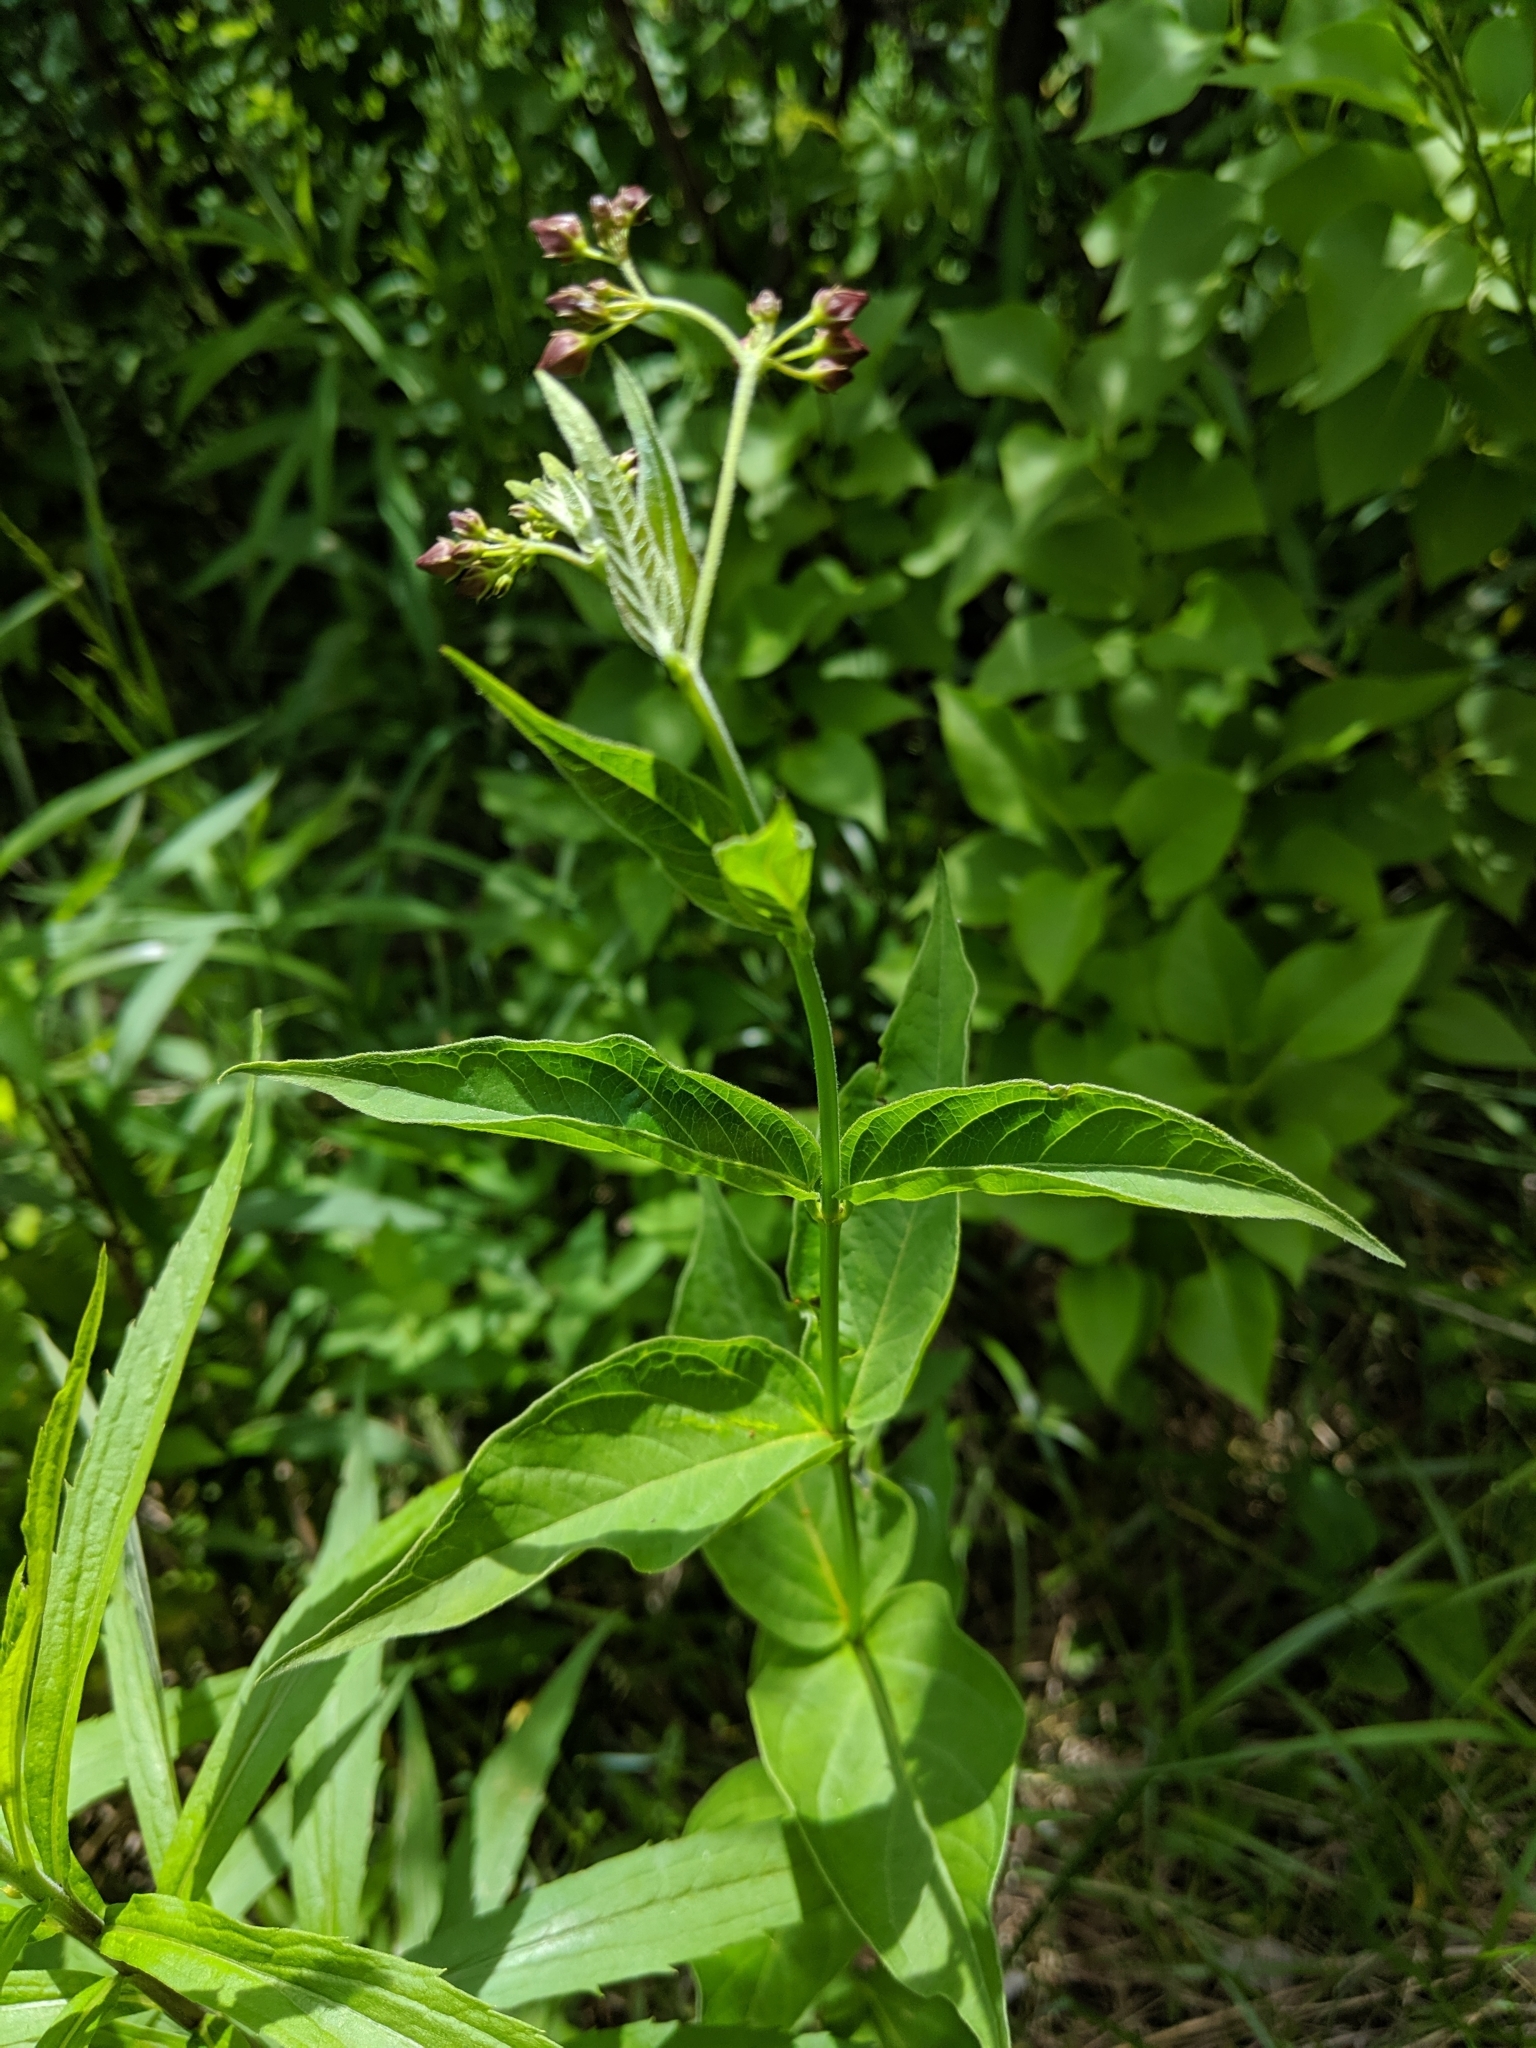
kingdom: Plantae
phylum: Tracheophyta
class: Magnoliopsida
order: Gentianales
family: Apocynaceae
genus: Vincetoxicum
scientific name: Vincetoxicum rossicum
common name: Dog-strangling vine
